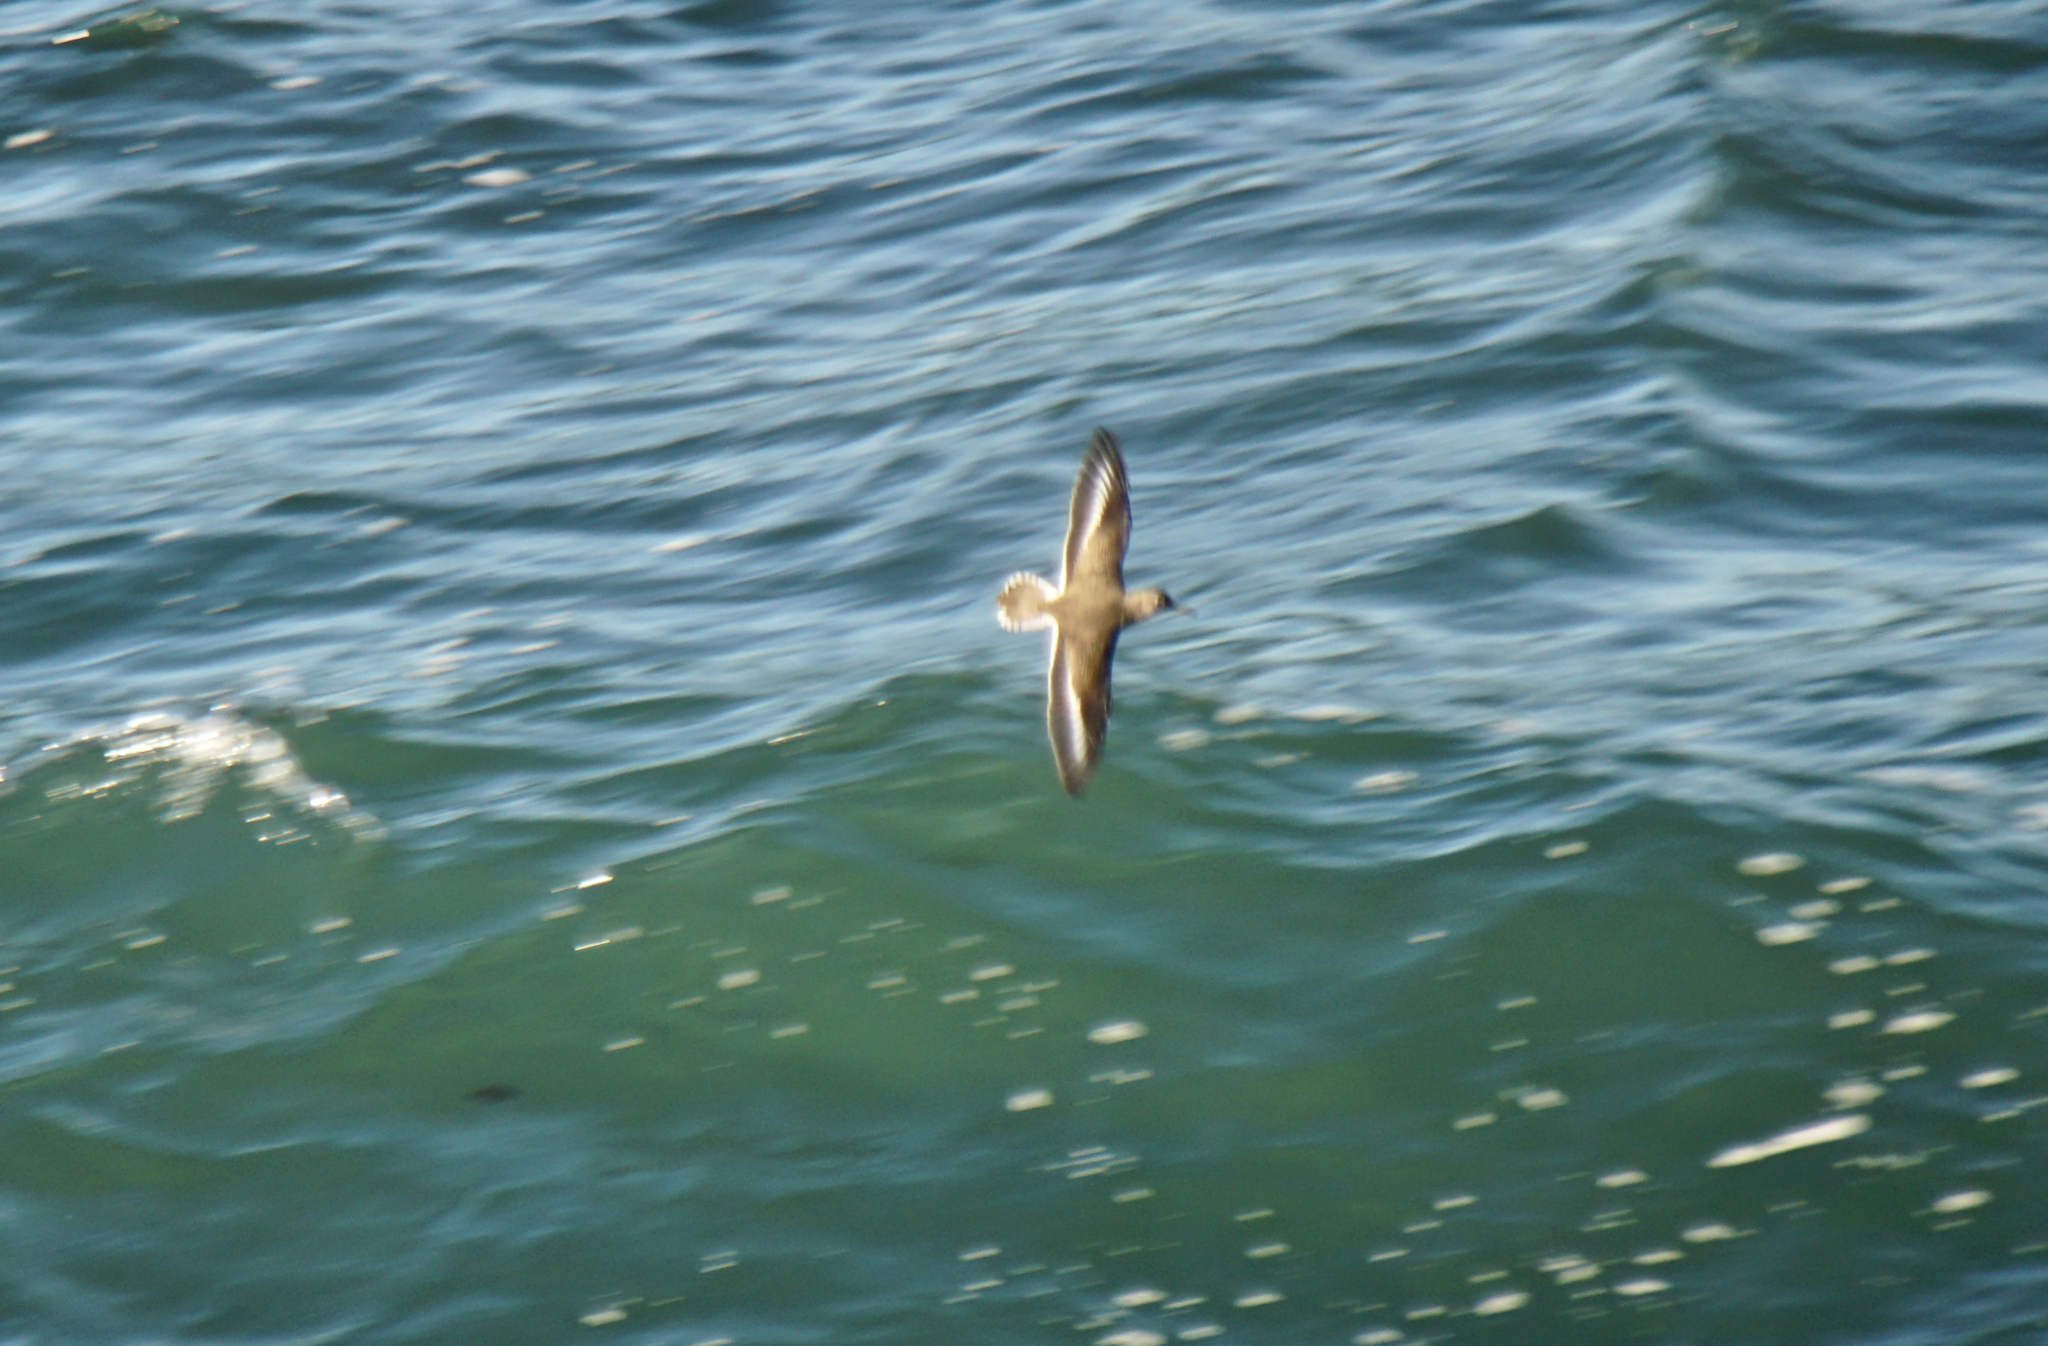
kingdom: Animalia
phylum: Chordata
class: Aves
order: Charadriiformes
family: Scolopacidae
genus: Actitis
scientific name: Actitis macularius
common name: Spotted sandpiper
